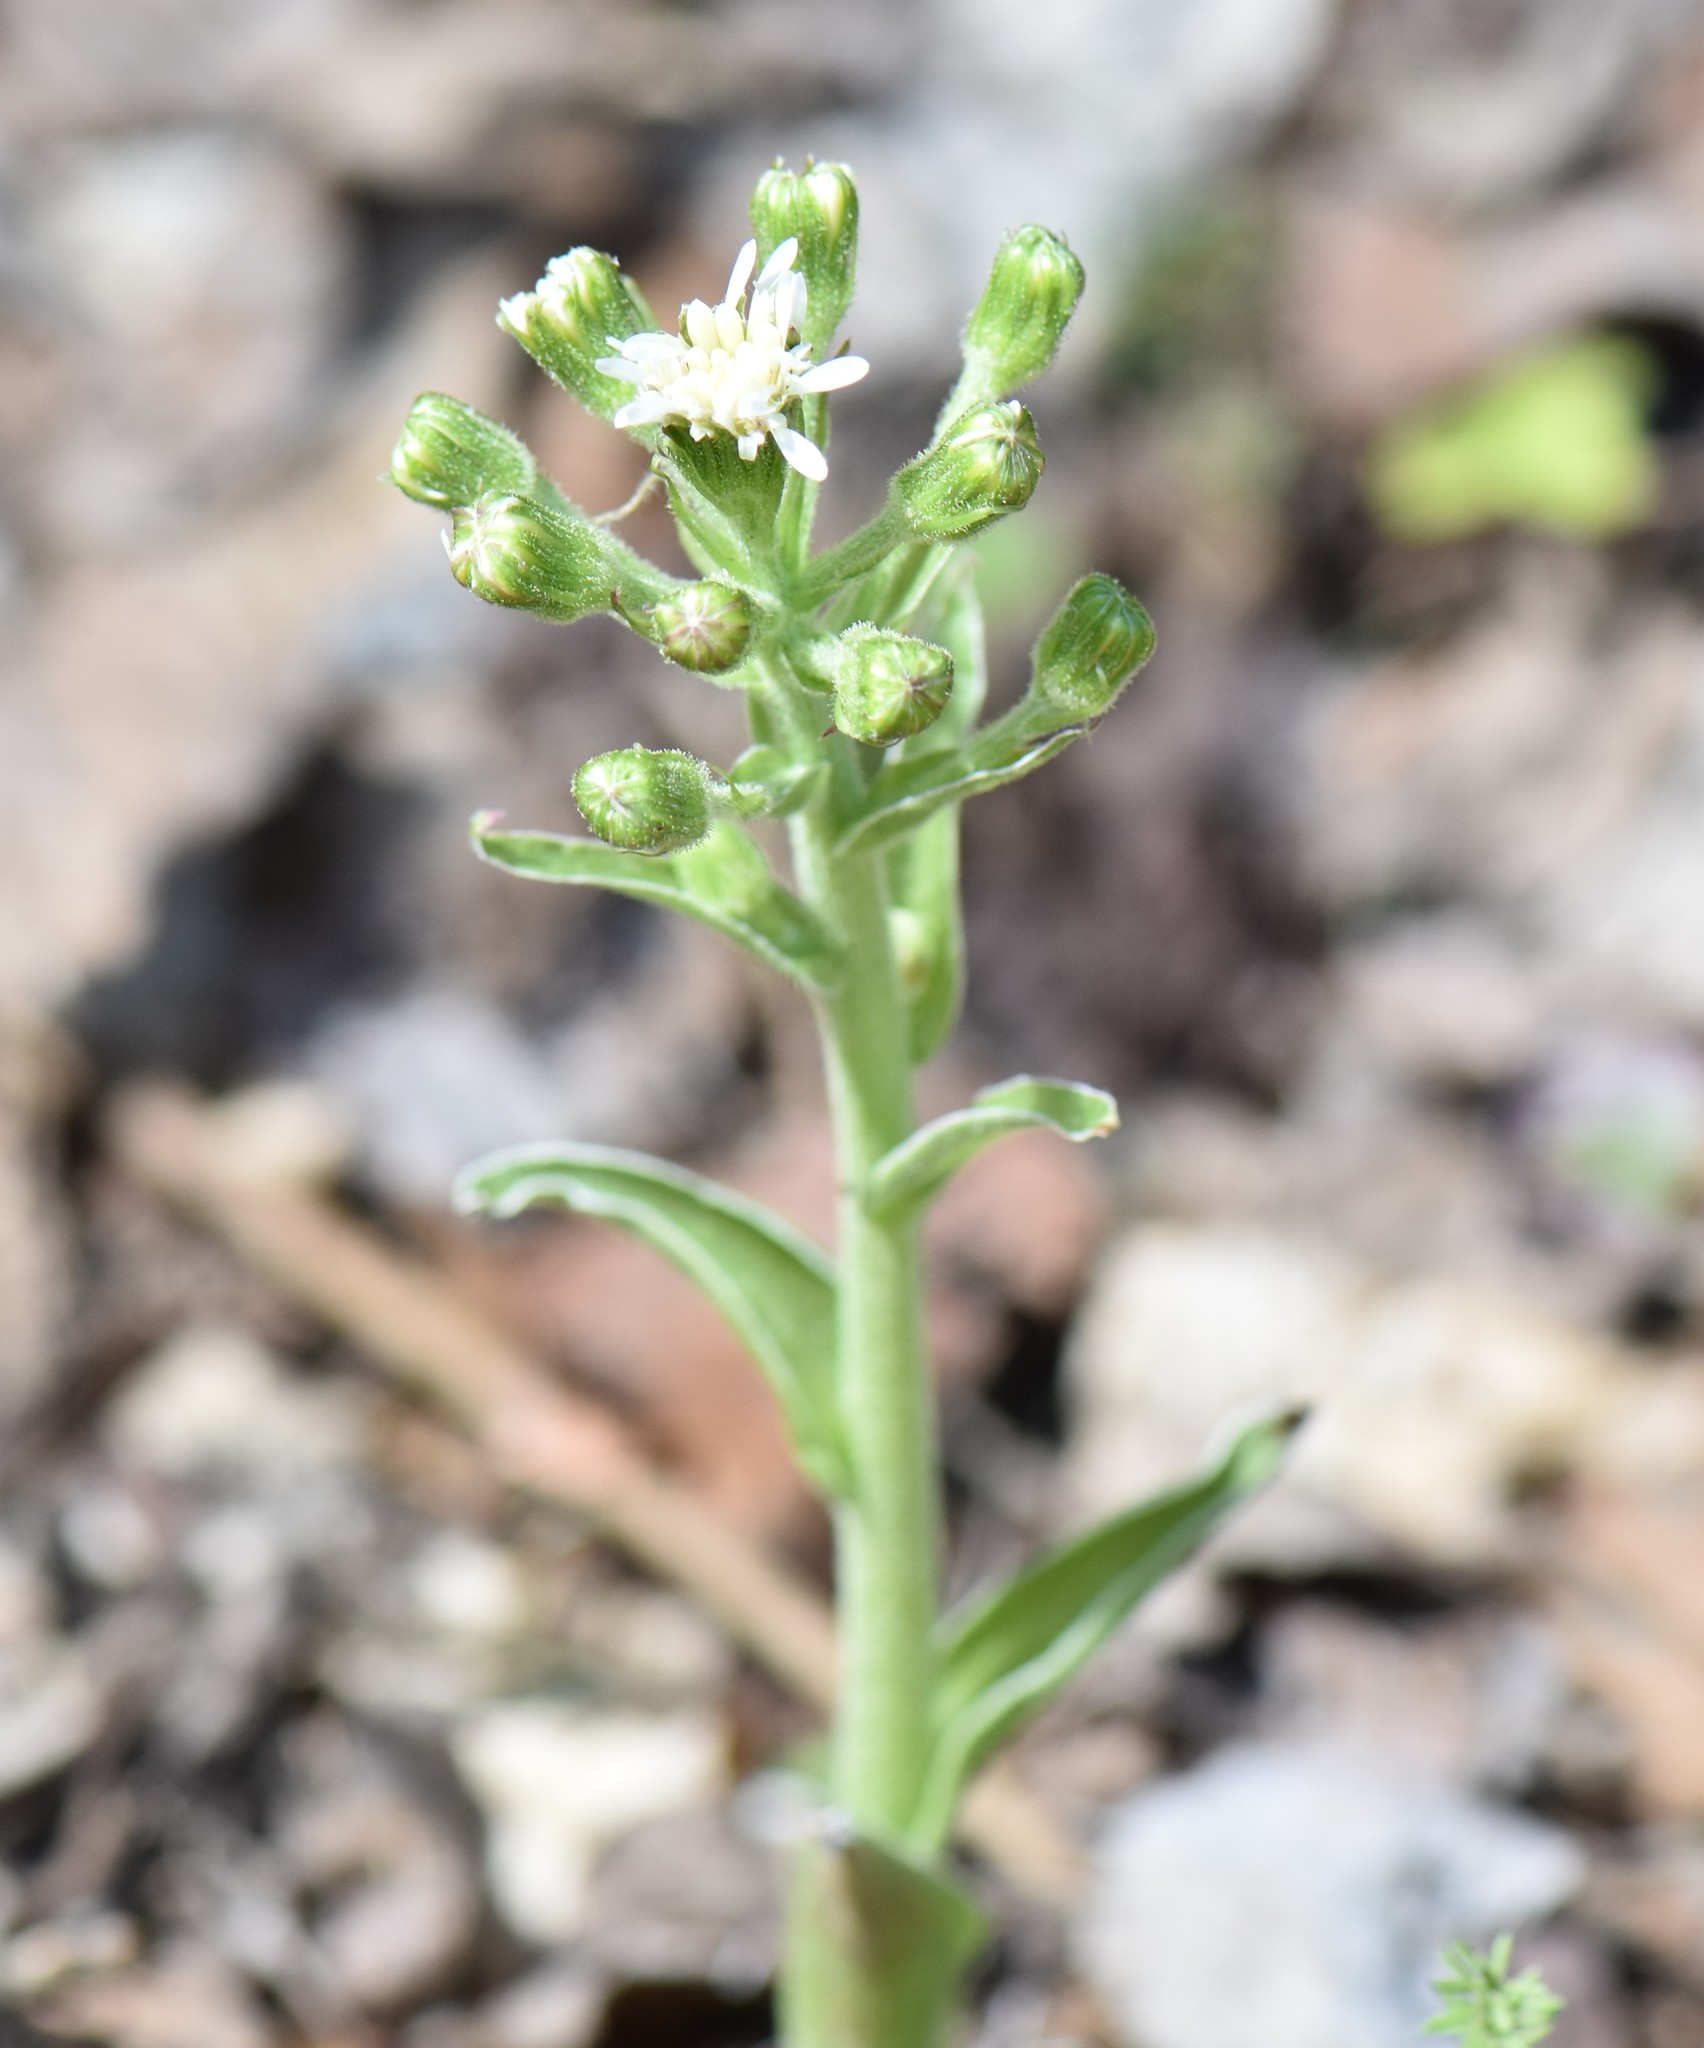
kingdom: Plantae
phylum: Tracheophyta
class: Magnoliopsida
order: Asterales
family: Asteraceae
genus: Petasites
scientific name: Petasites frigidus
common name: Arctic butterbur
